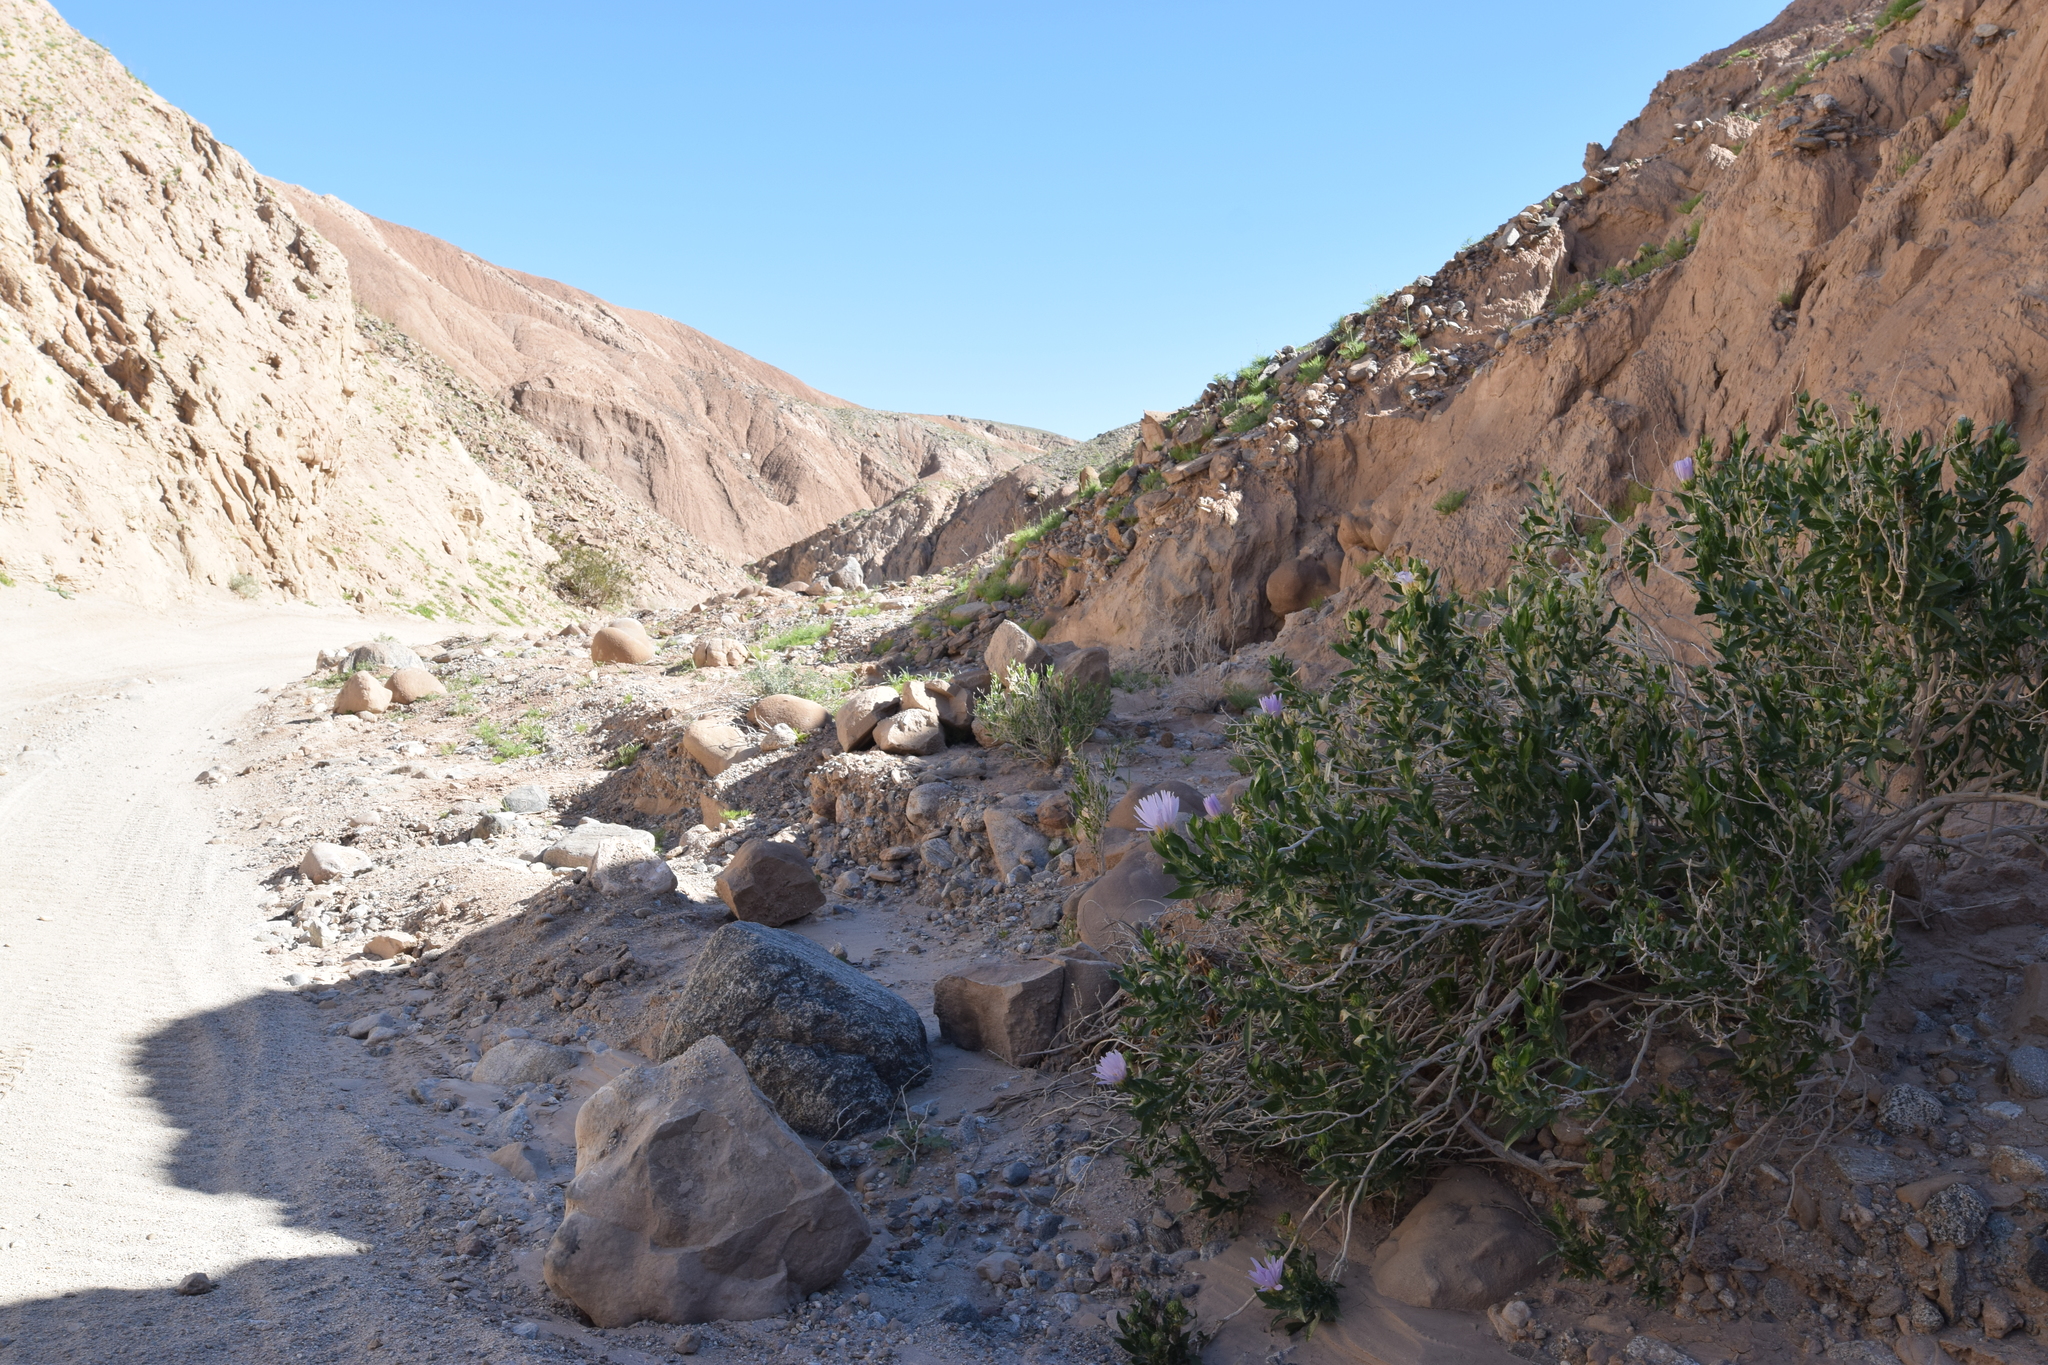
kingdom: Plantae
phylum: Tracheophyta
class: Magnoliopsida
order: Asterales
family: Asteraceae
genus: Xylorhiza
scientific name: Xylorhiza orcuttii
